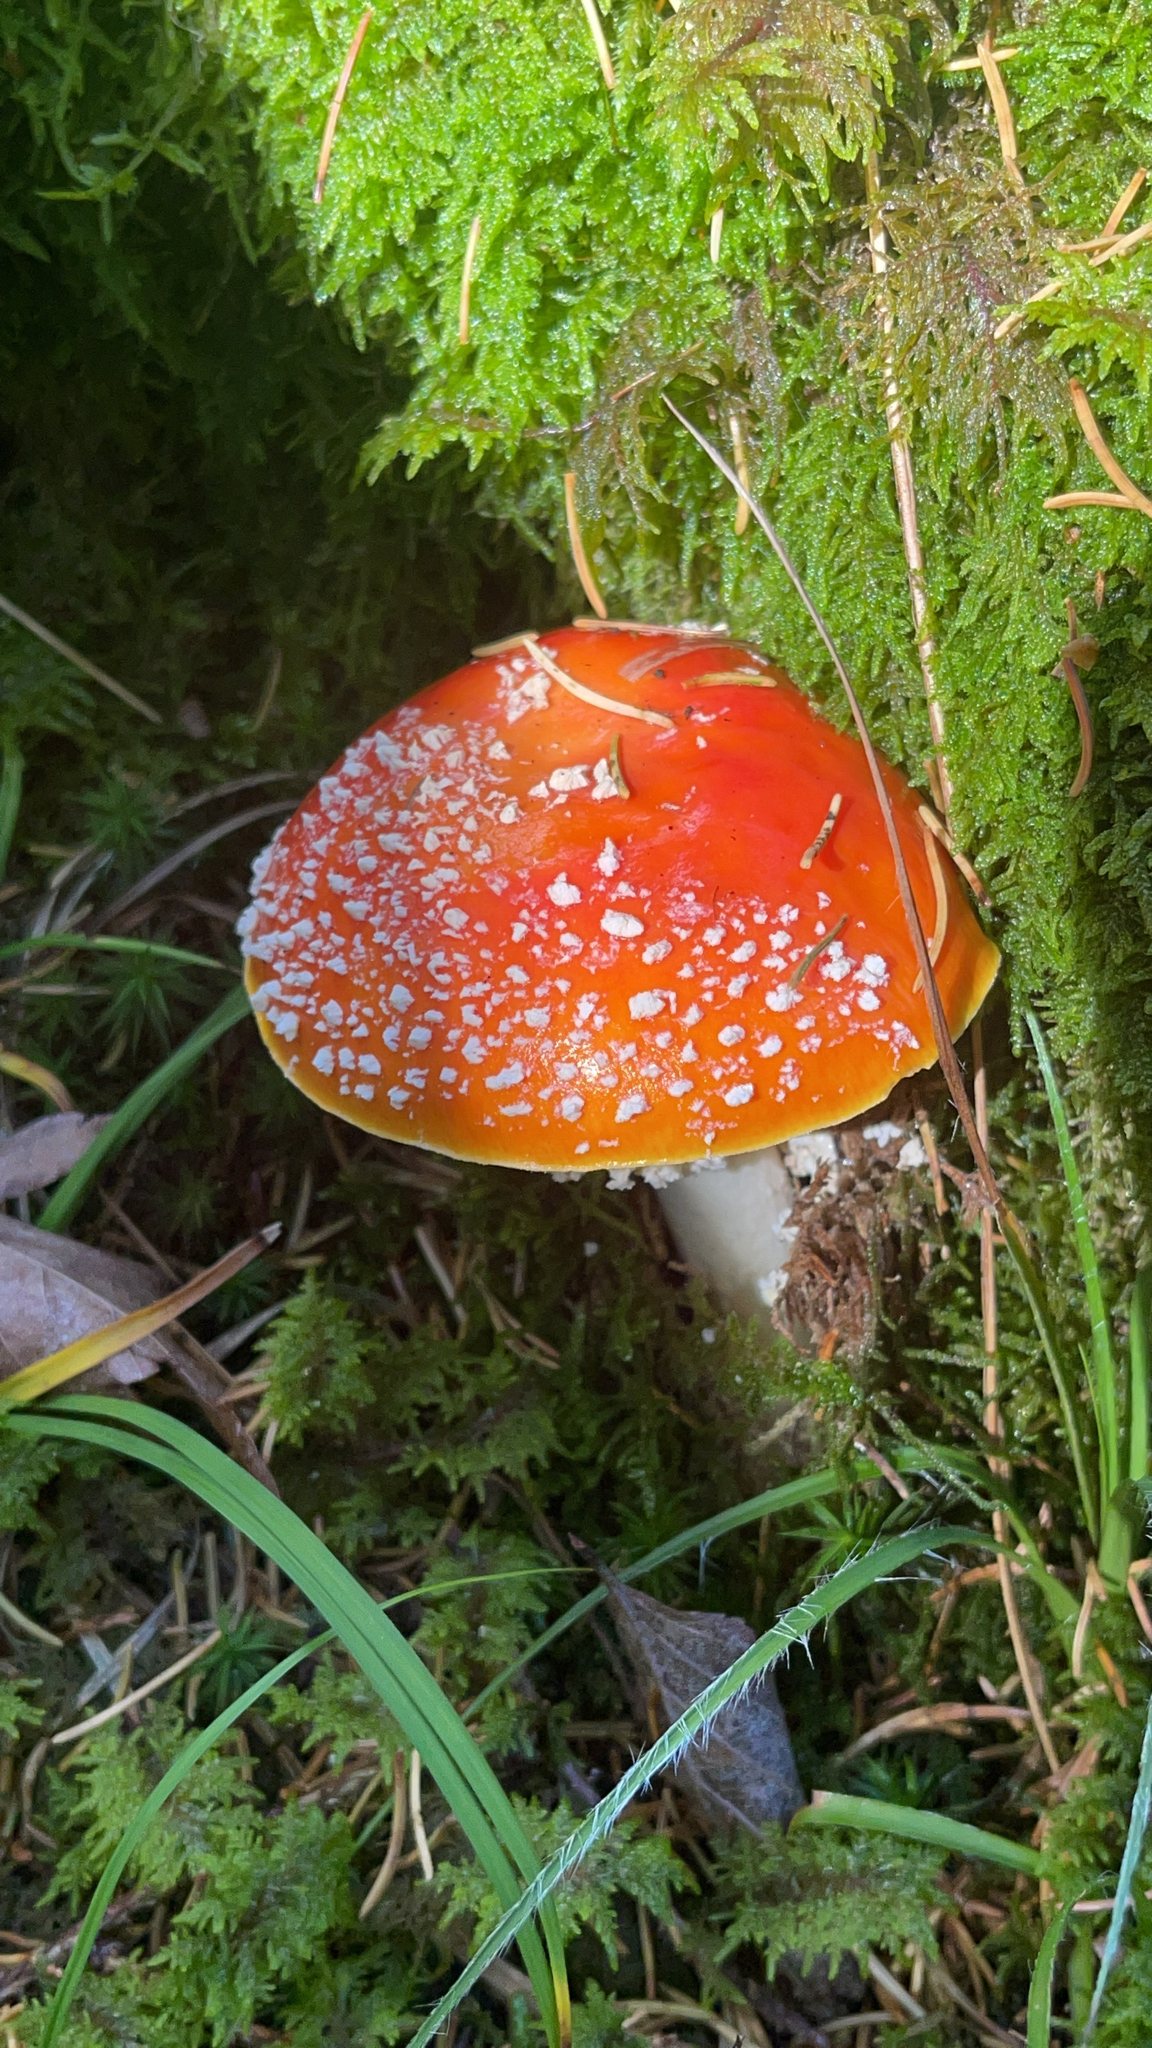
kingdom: Fungi
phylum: Basidiomycota
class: Agaricomycetes
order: Agaricales
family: Amanitaceae
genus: Amanita
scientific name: Amanita muscaria
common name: Fly agaric
